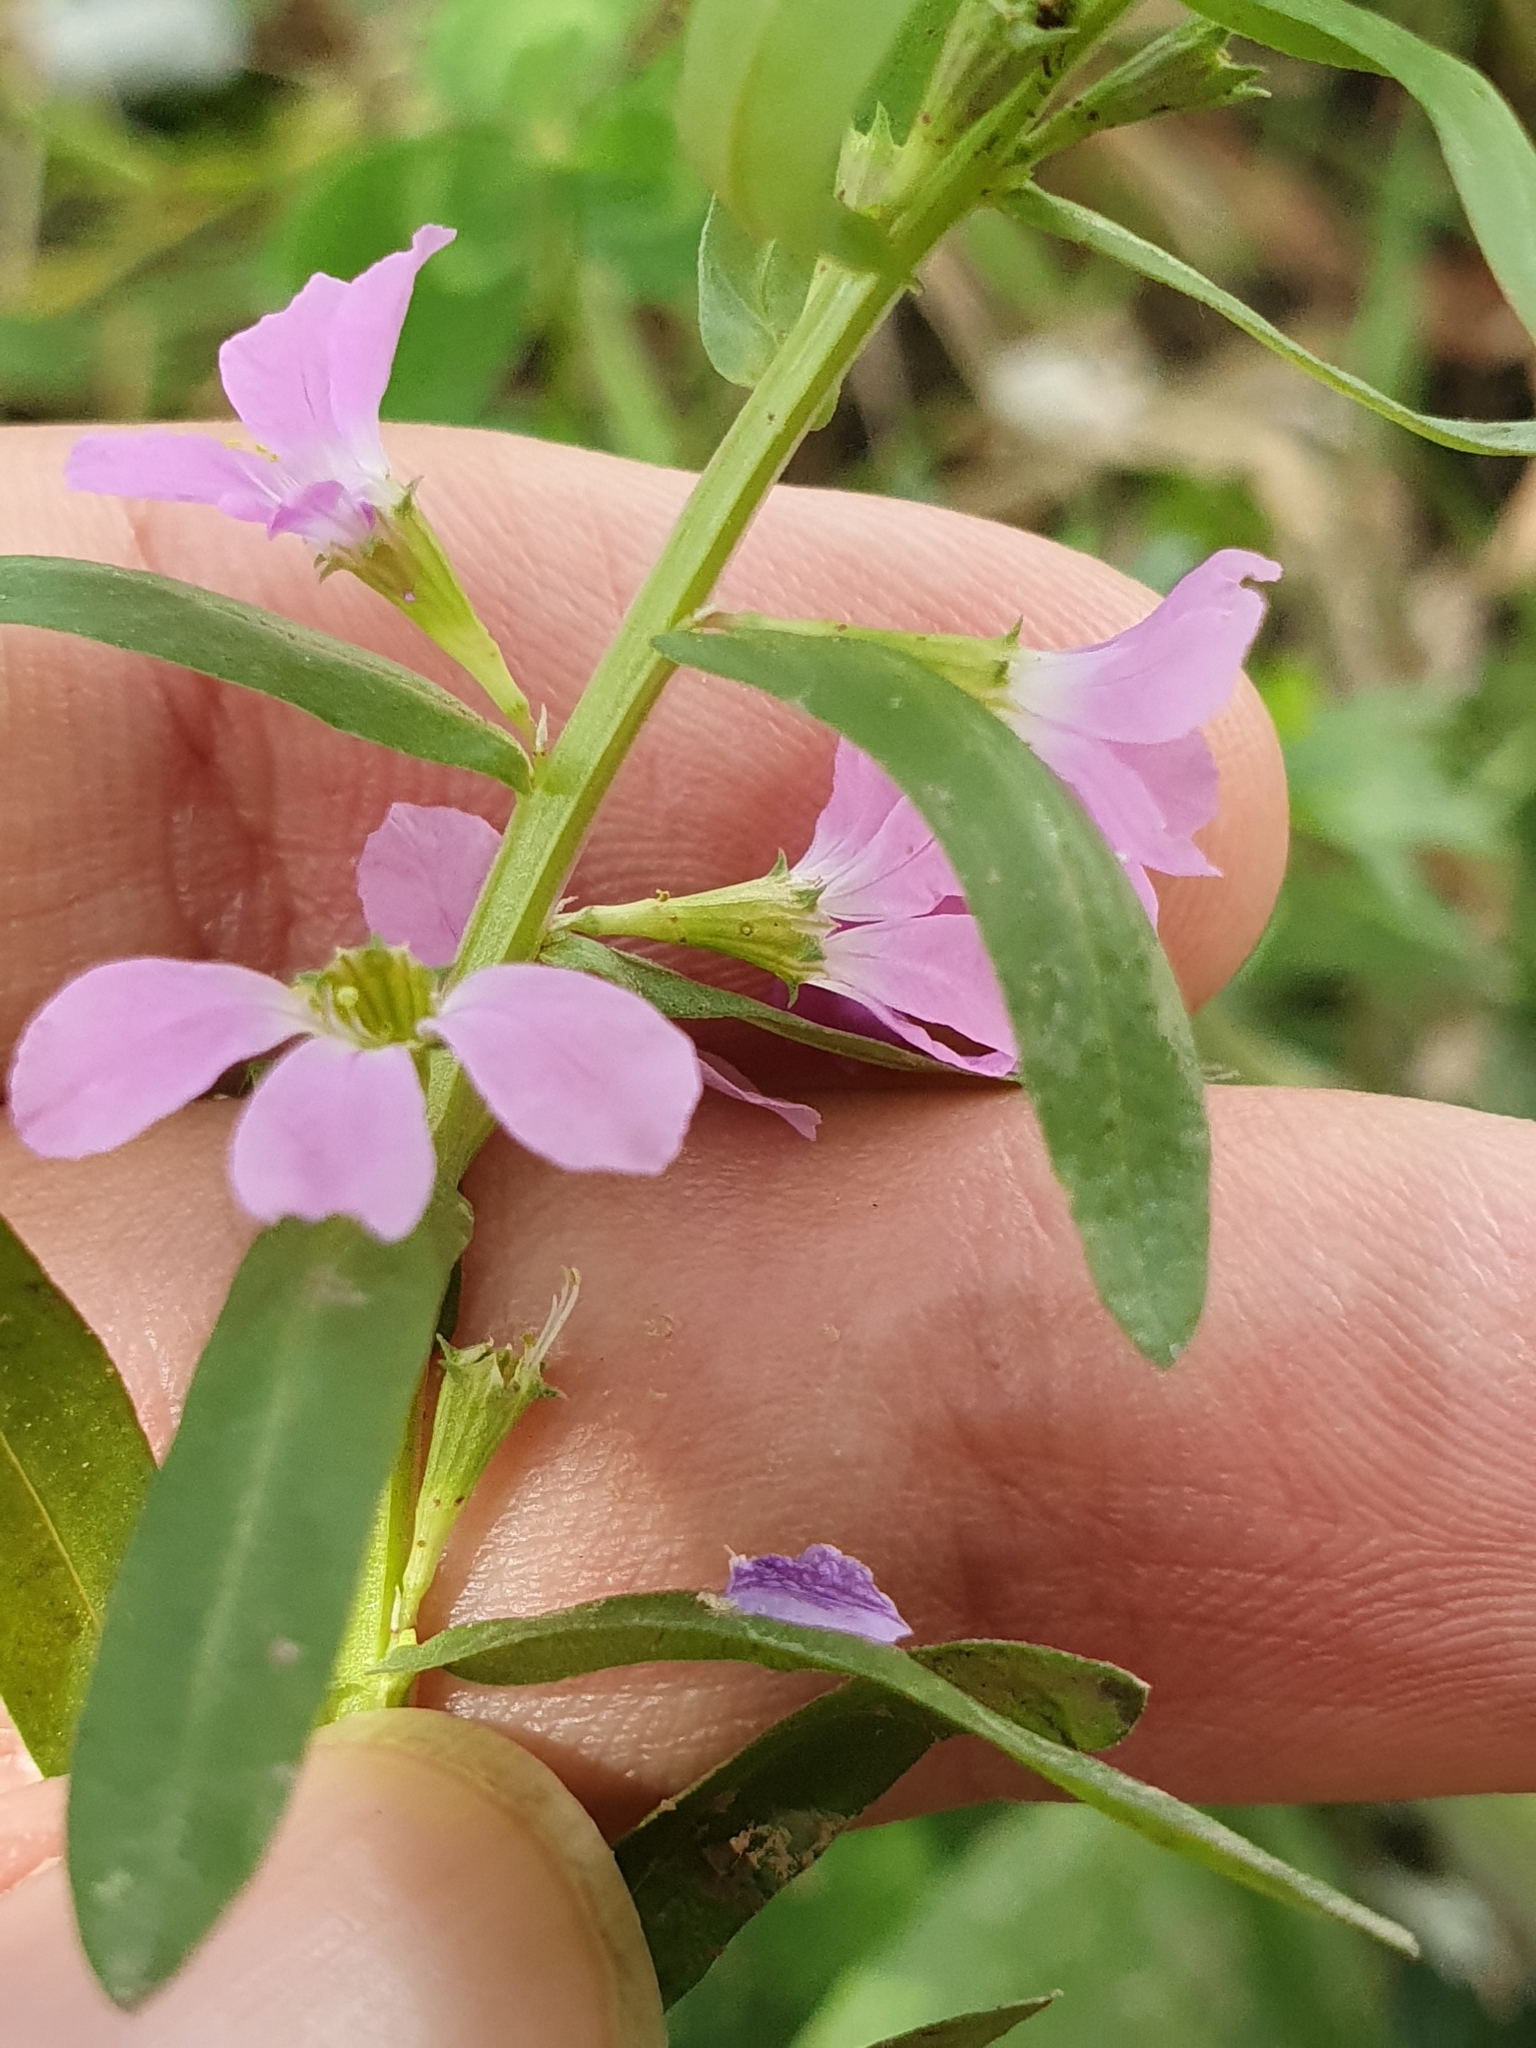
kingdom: Plantae
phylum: Tracheophyta
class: Magnoliopsida
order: Myrtales
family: Lythraceae
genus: Lythrum
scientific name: Lythrum junceum
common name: False grass-poly
